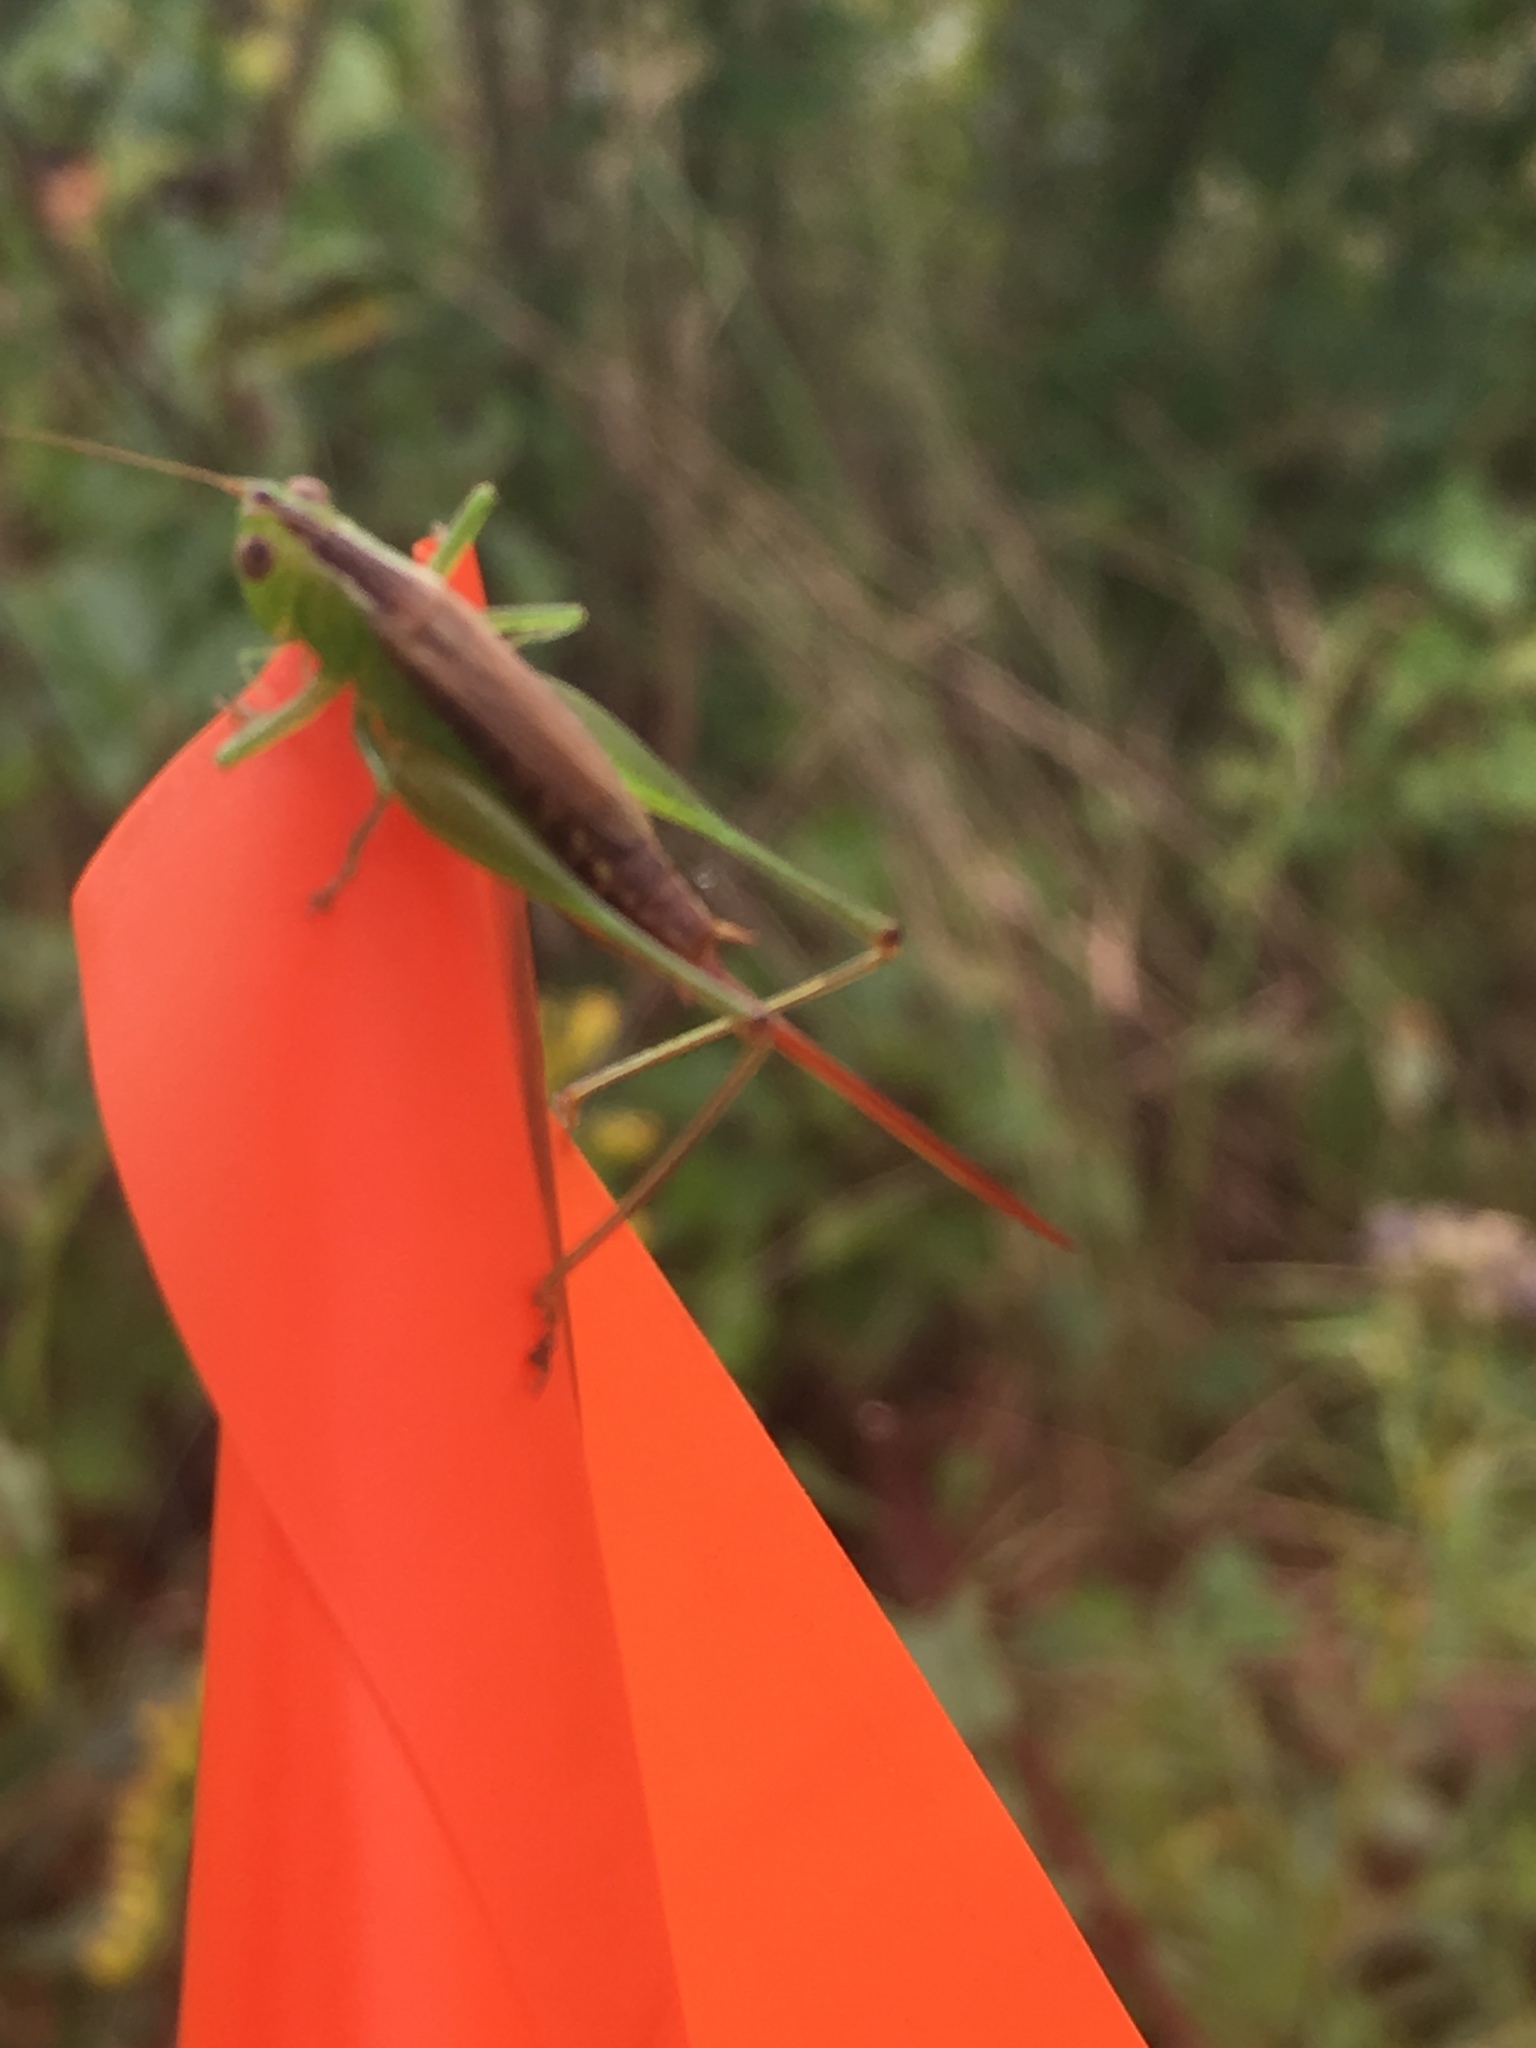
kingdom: Animalia
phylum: Arthropoda
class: Insecta
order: Orthoptera
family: Tettigoniidae
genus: Conocephalus
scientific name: Conocephalus brevipennis
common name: Short-winged meadow katydid
